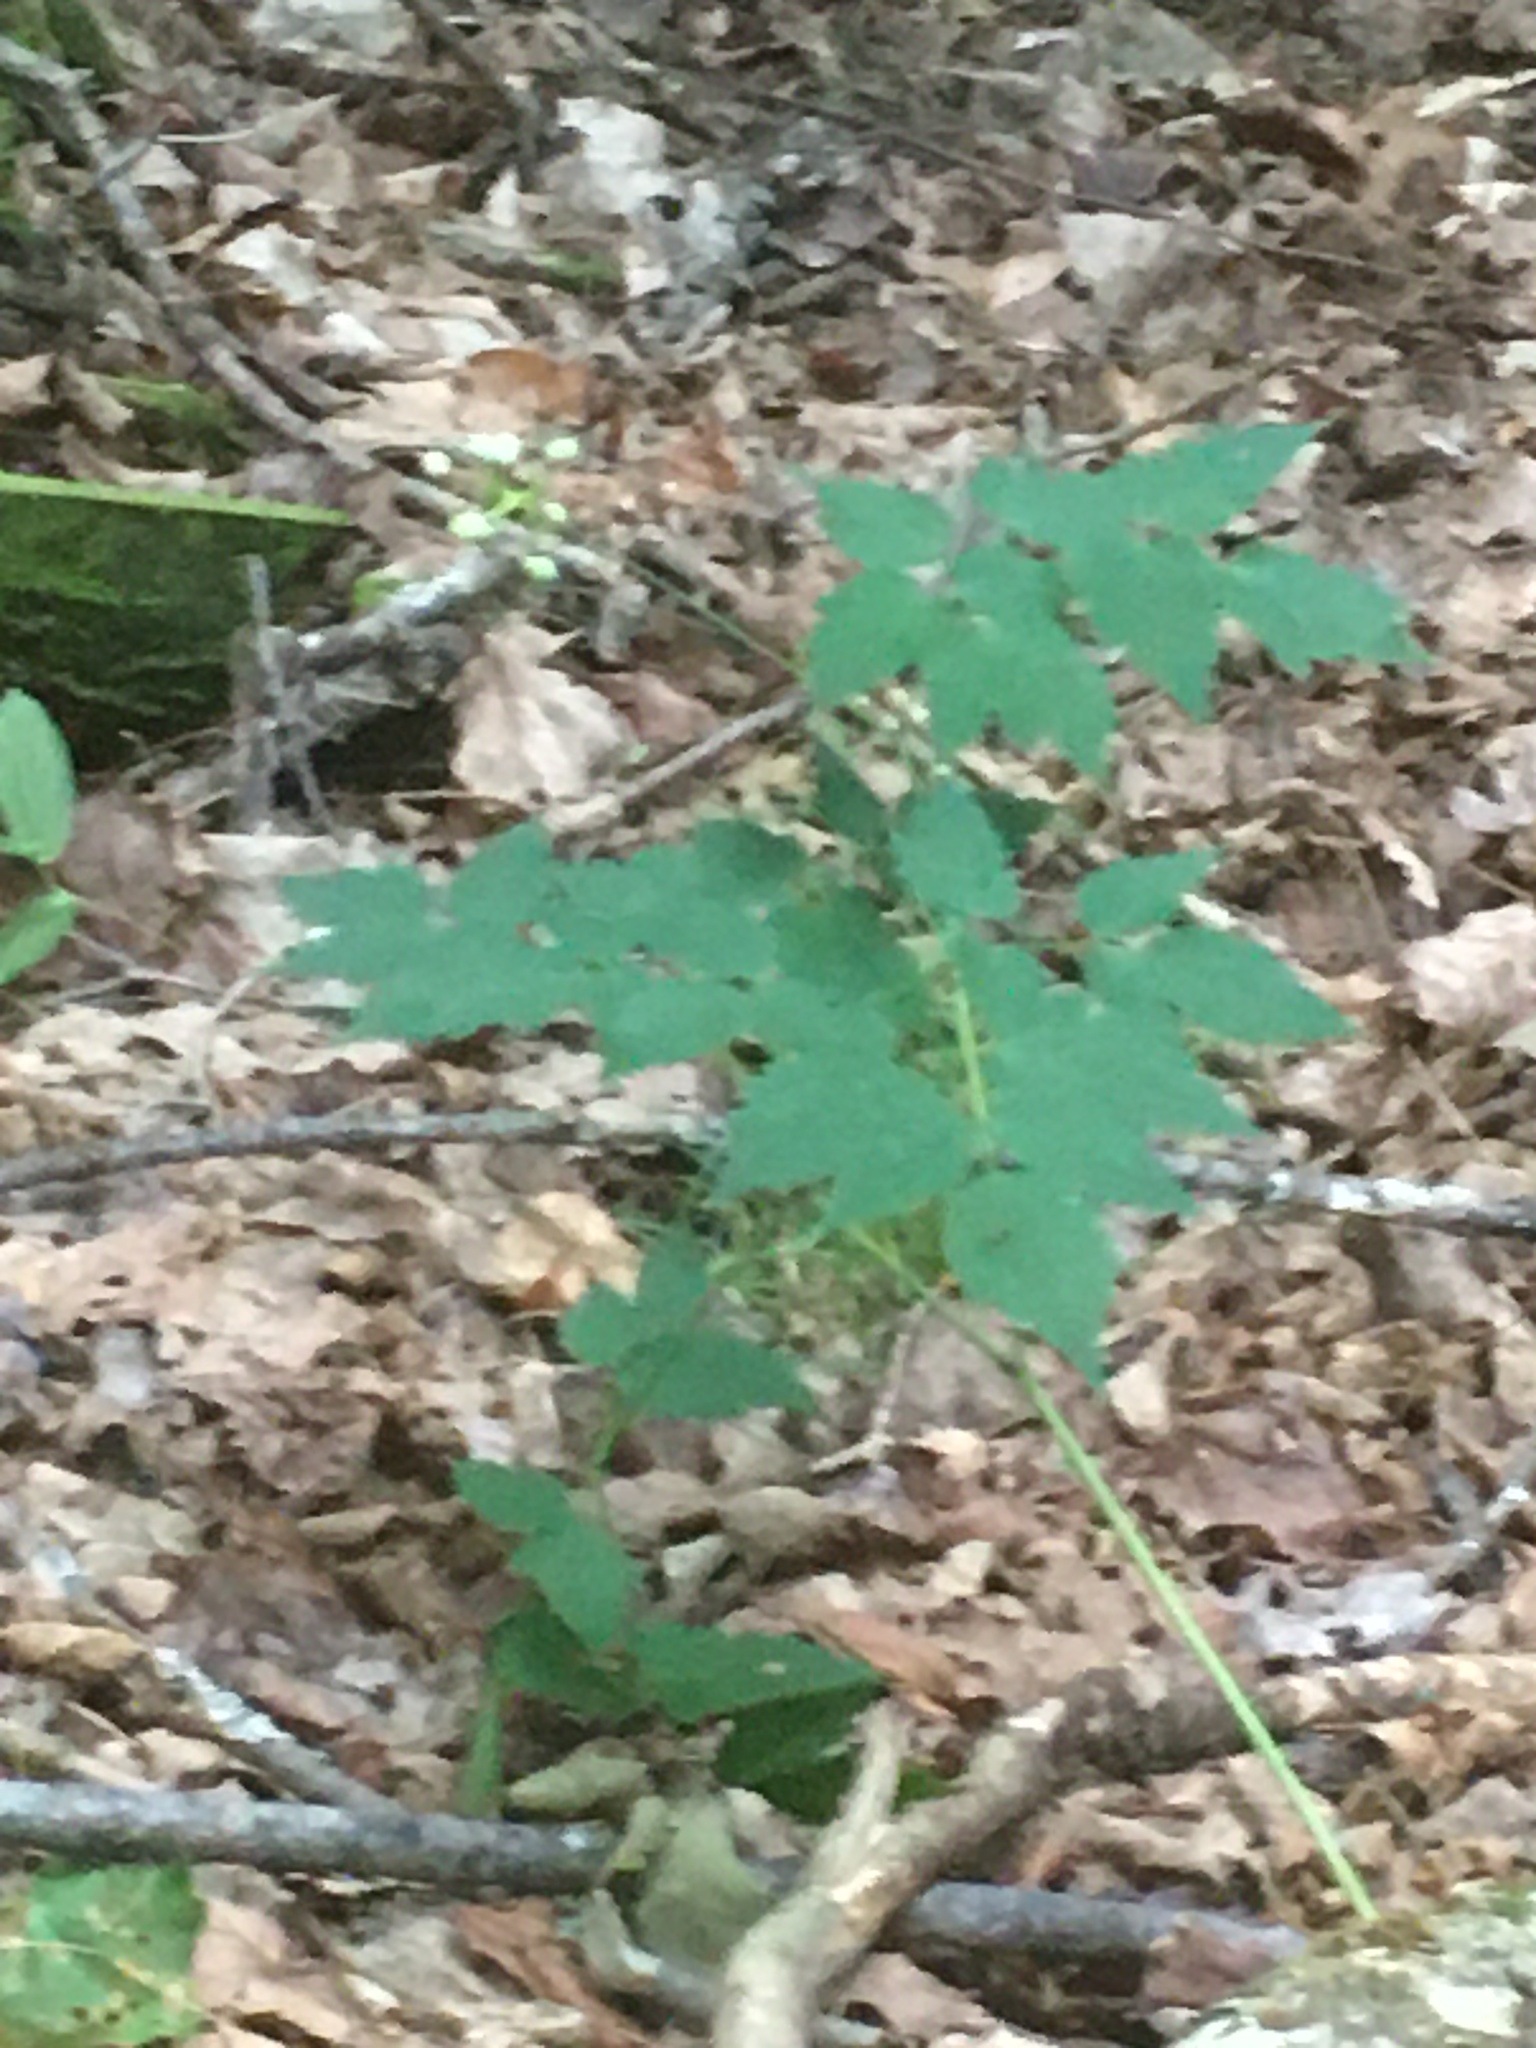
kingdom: Plantae
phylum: Tracheophyta
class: Magnoliopsida
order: Ranunculales
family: Ranunculaceae
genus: Actaea
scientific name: Actaea pachypoda
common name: Doll's-eyes
